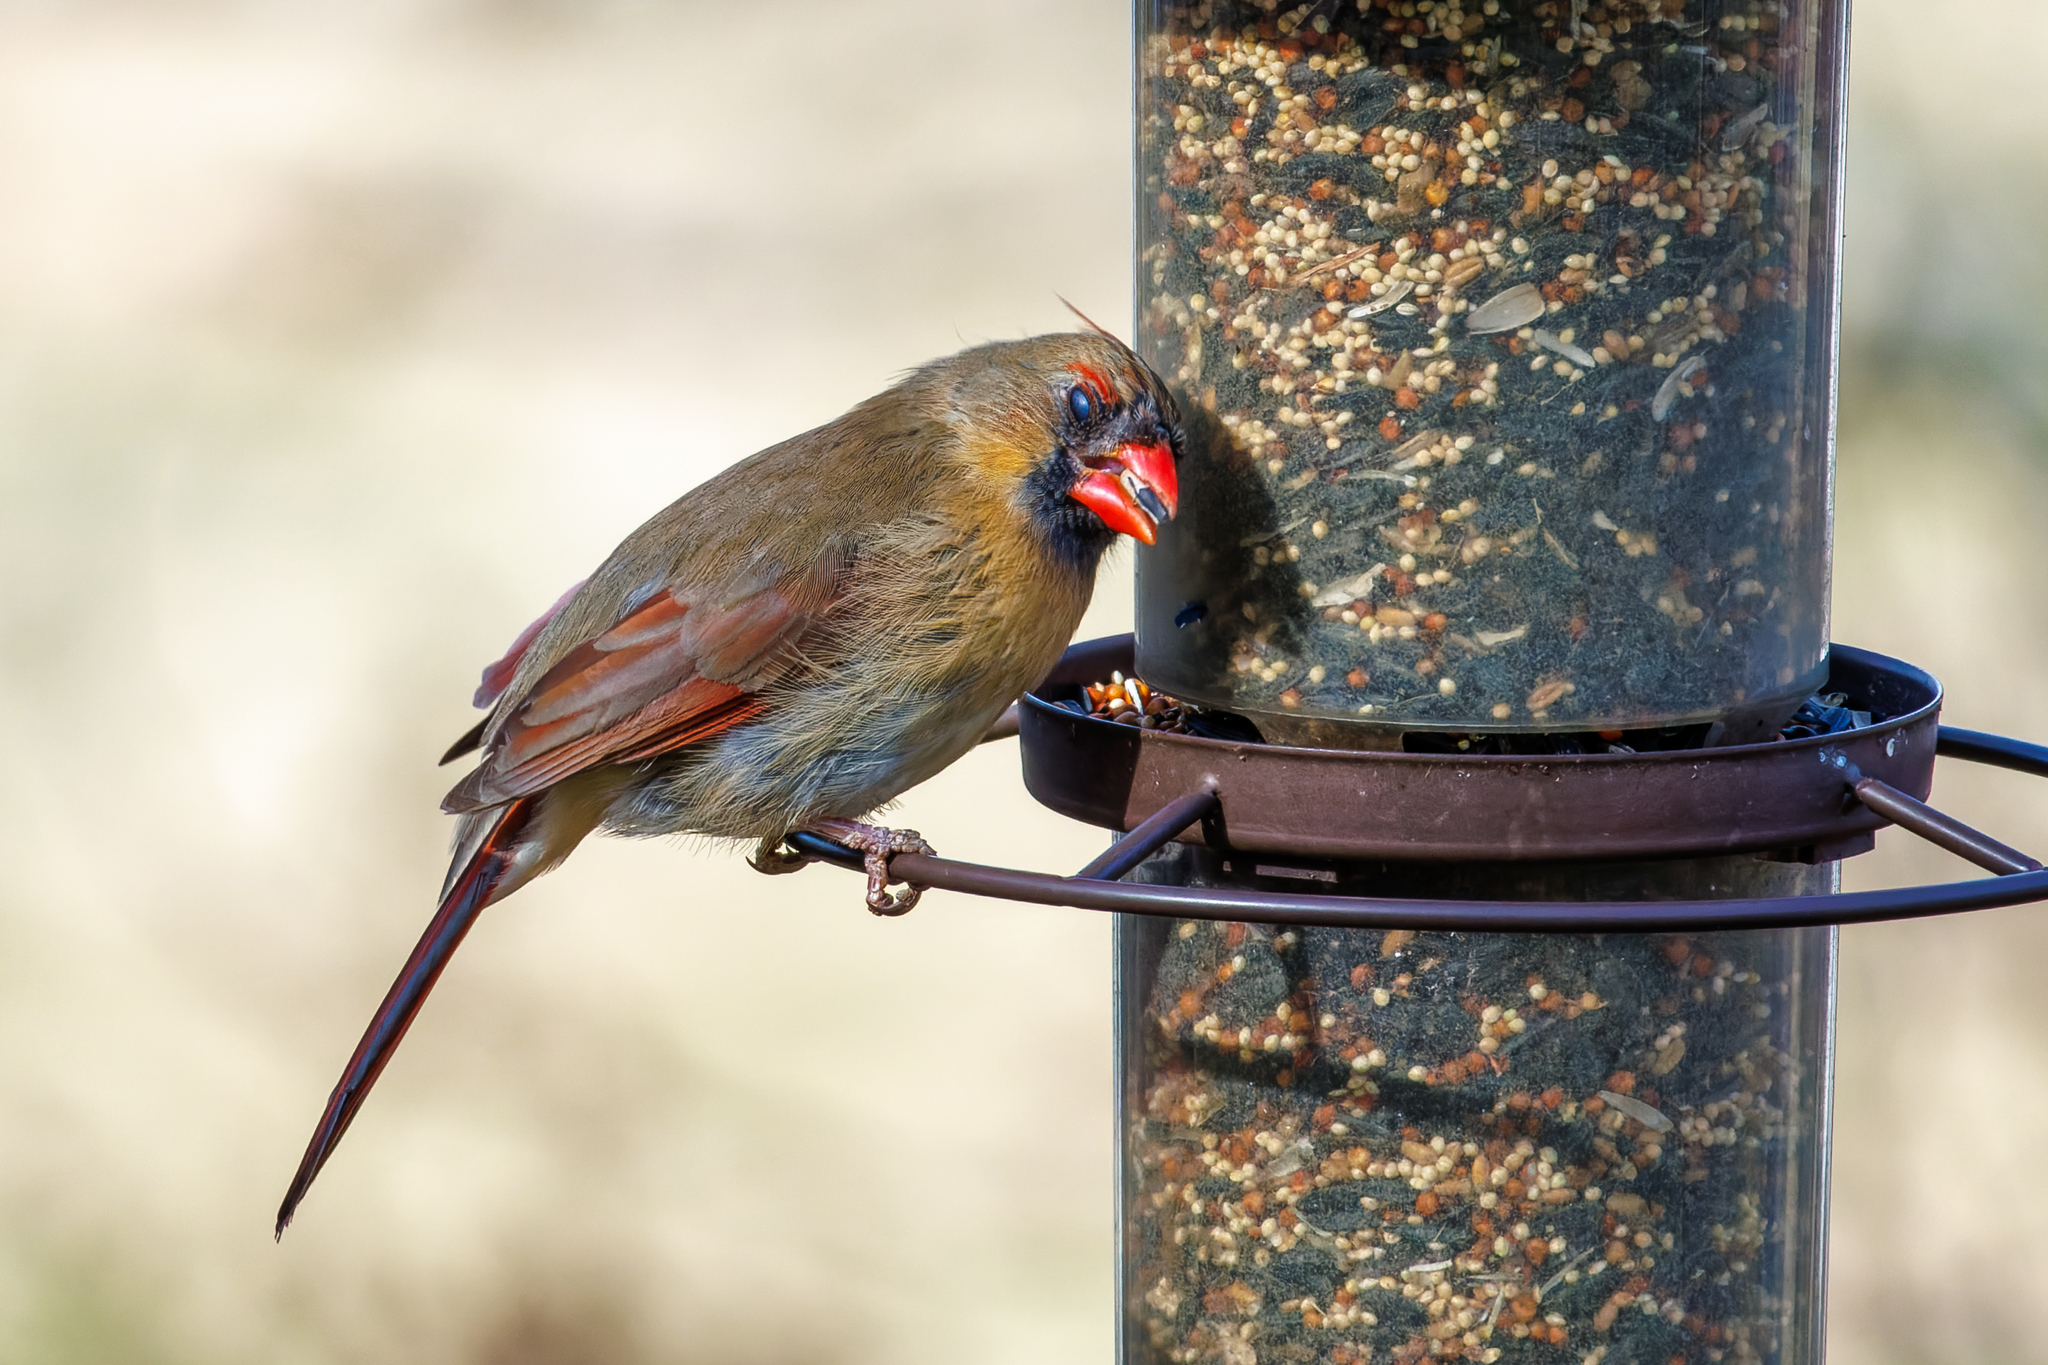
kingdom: Animalia
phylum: Chordata
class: Aves
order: Passeriformes
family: Cardinalidae
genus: Cardinalis
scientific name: Cardinalis cardinalis
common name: Northern cardinal
